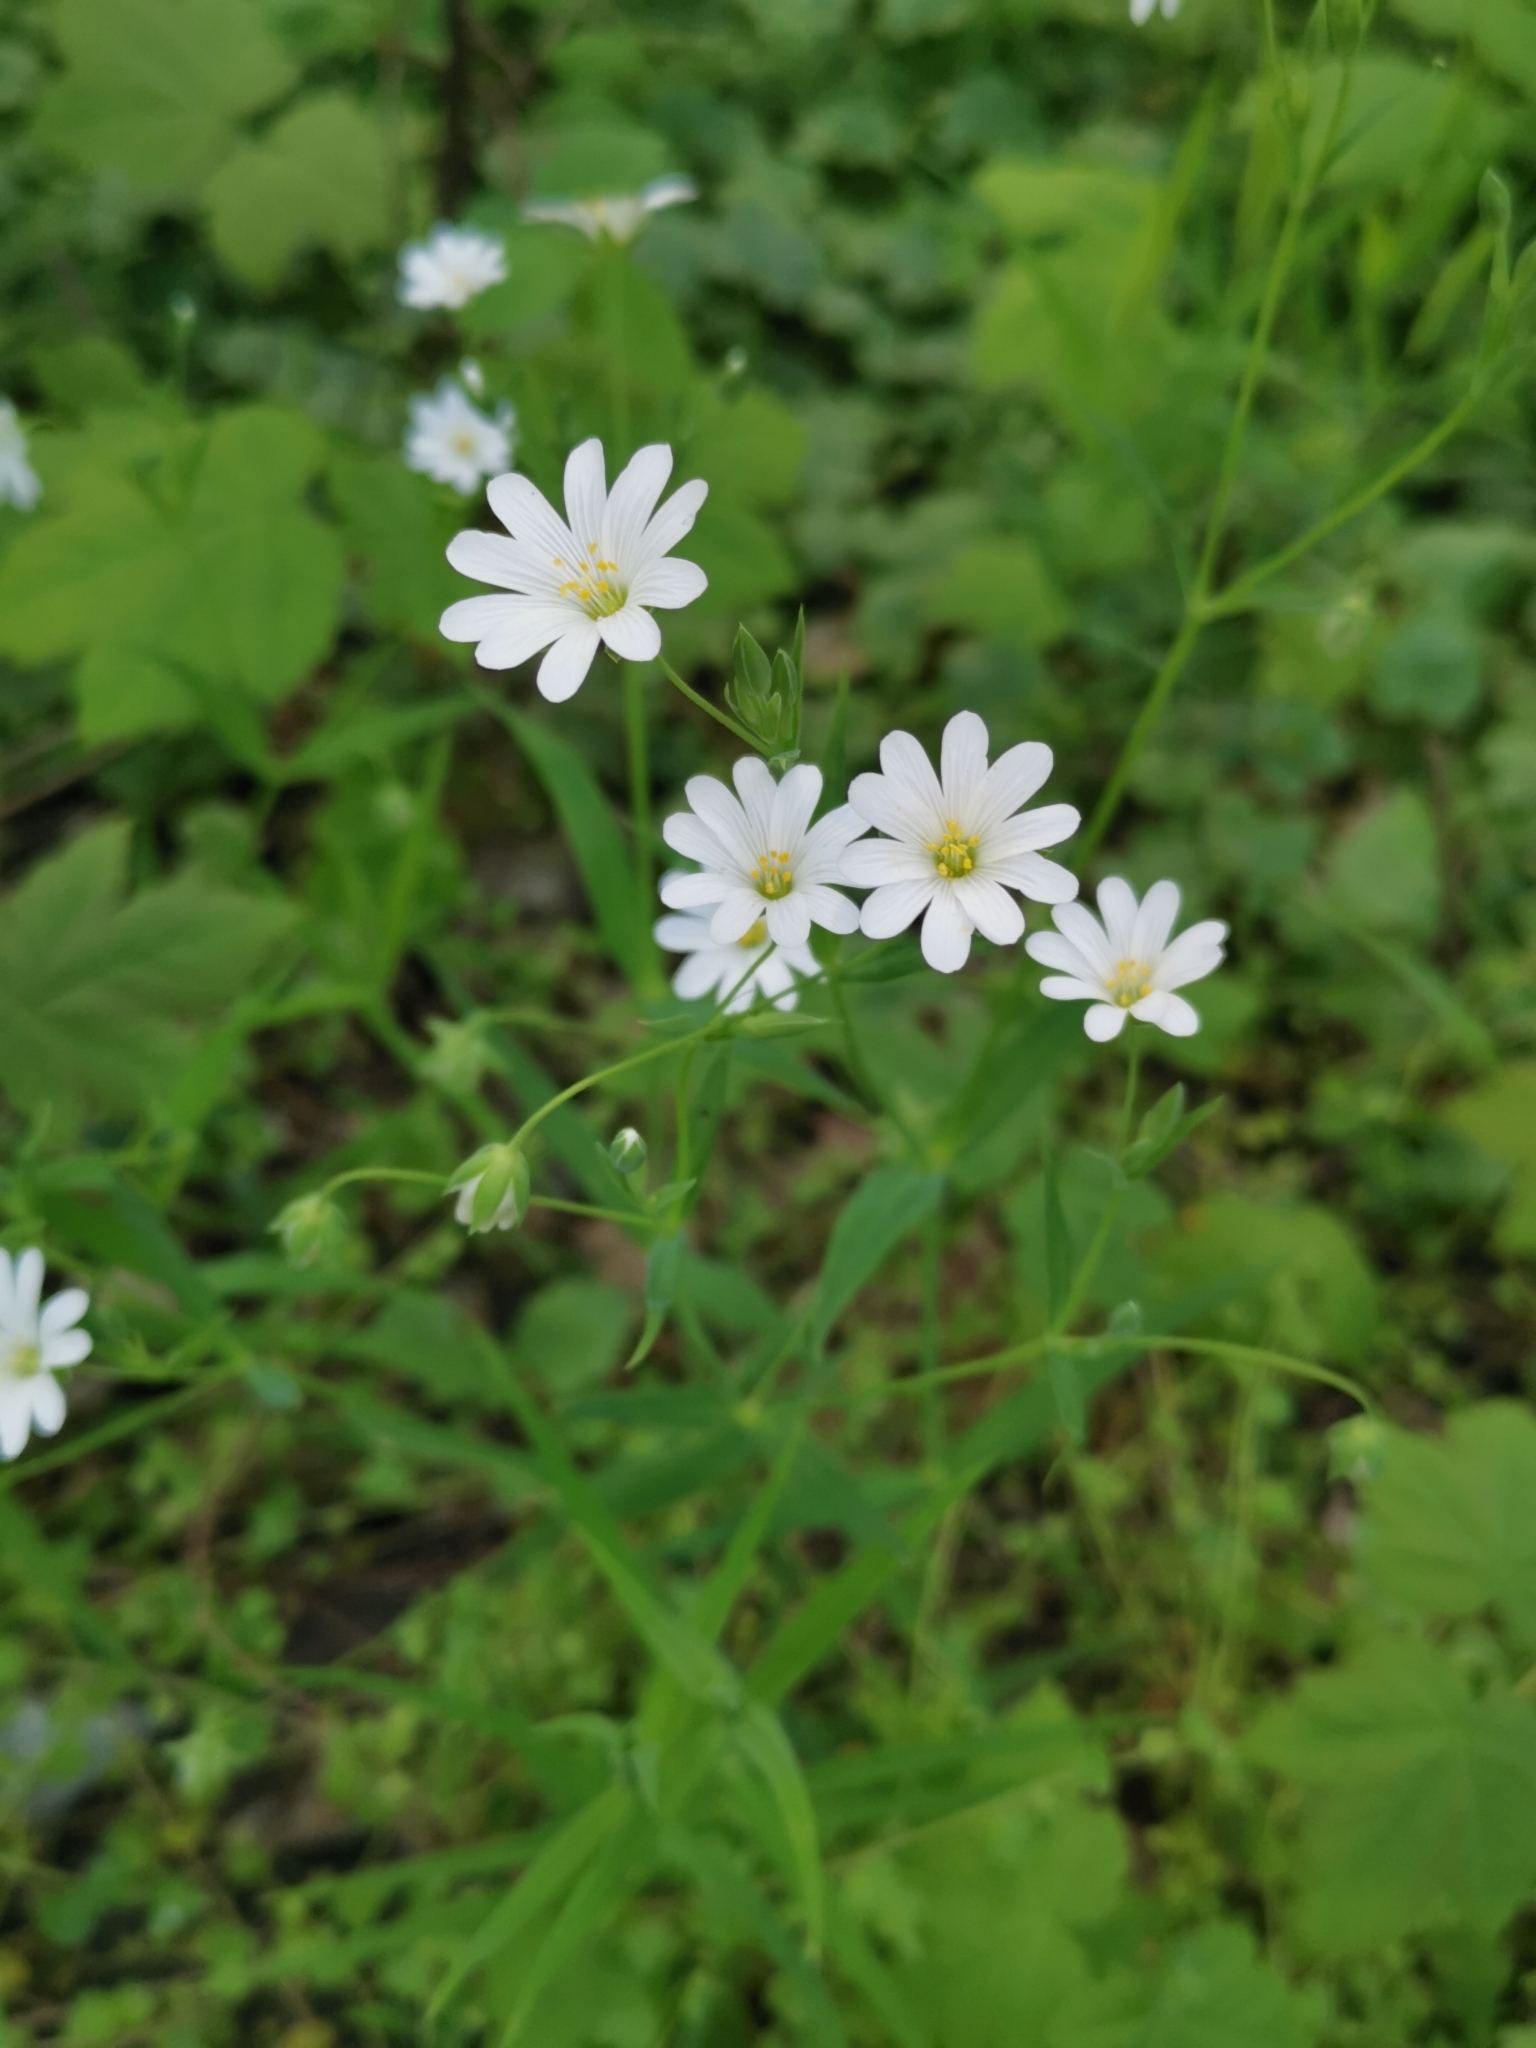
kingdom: Plantae
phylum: Tracheophyta
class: Magnoliopsida
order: Caryophyllales
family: Caryophyllaceae
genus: Rabelera
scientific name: Rabelera holostea
